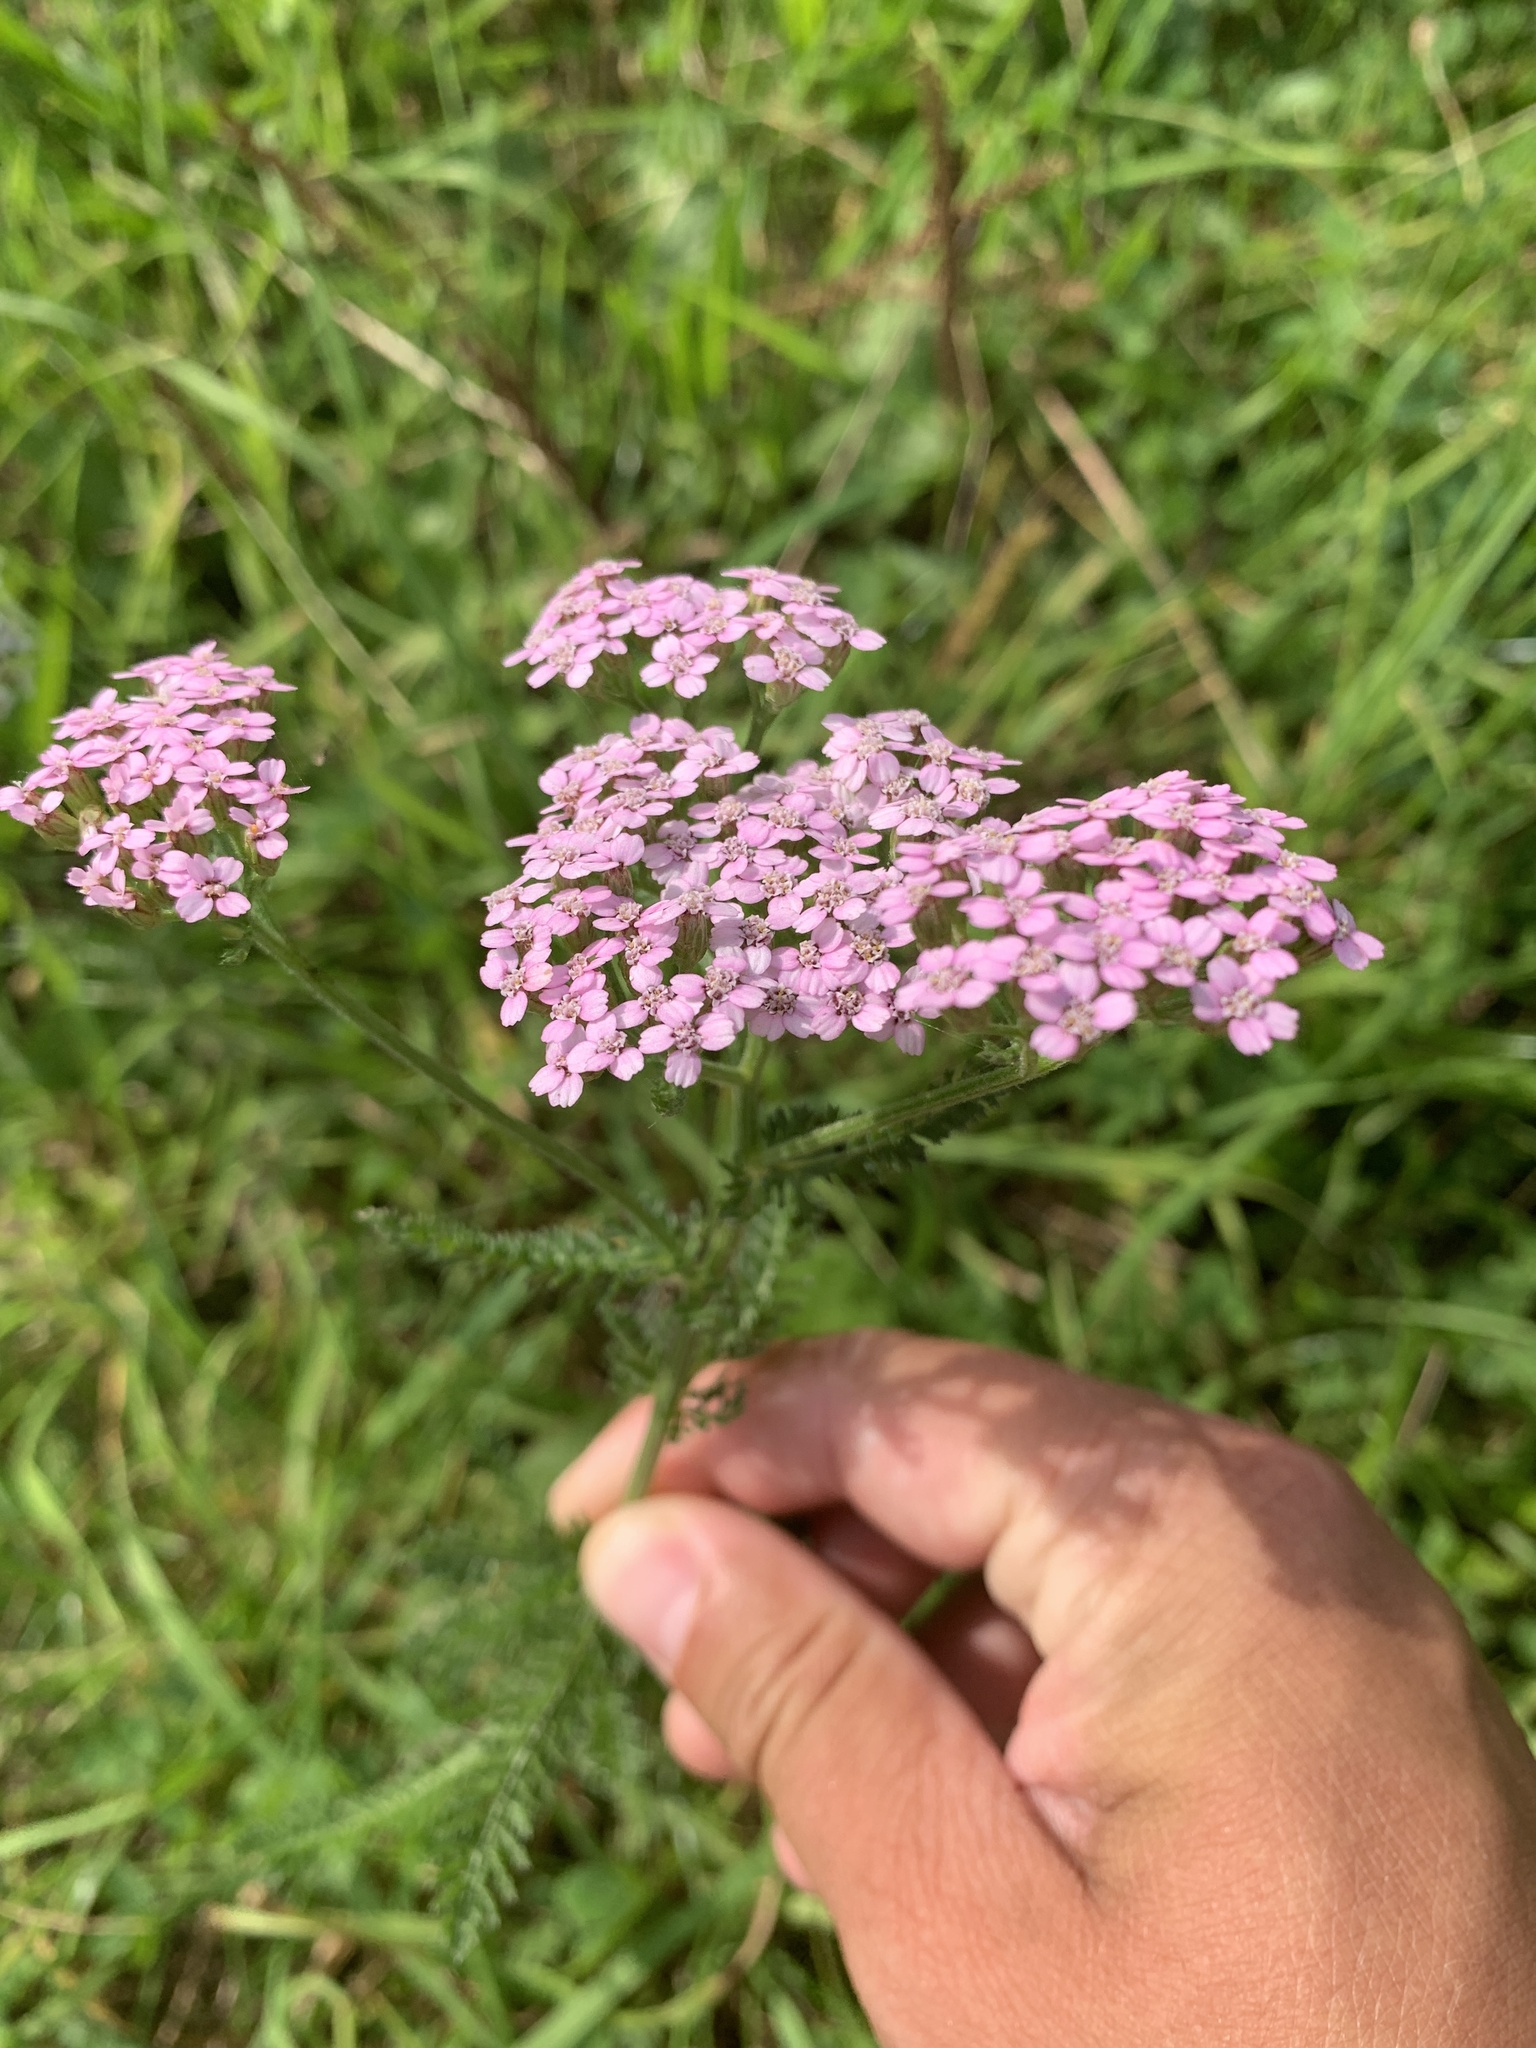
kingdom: Plantae
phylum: Tracheophyta
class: Magnoliopsida
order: Asterales
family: Asteraceae
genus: Achillea
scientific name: Achillea millefolium
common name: Yarrow
